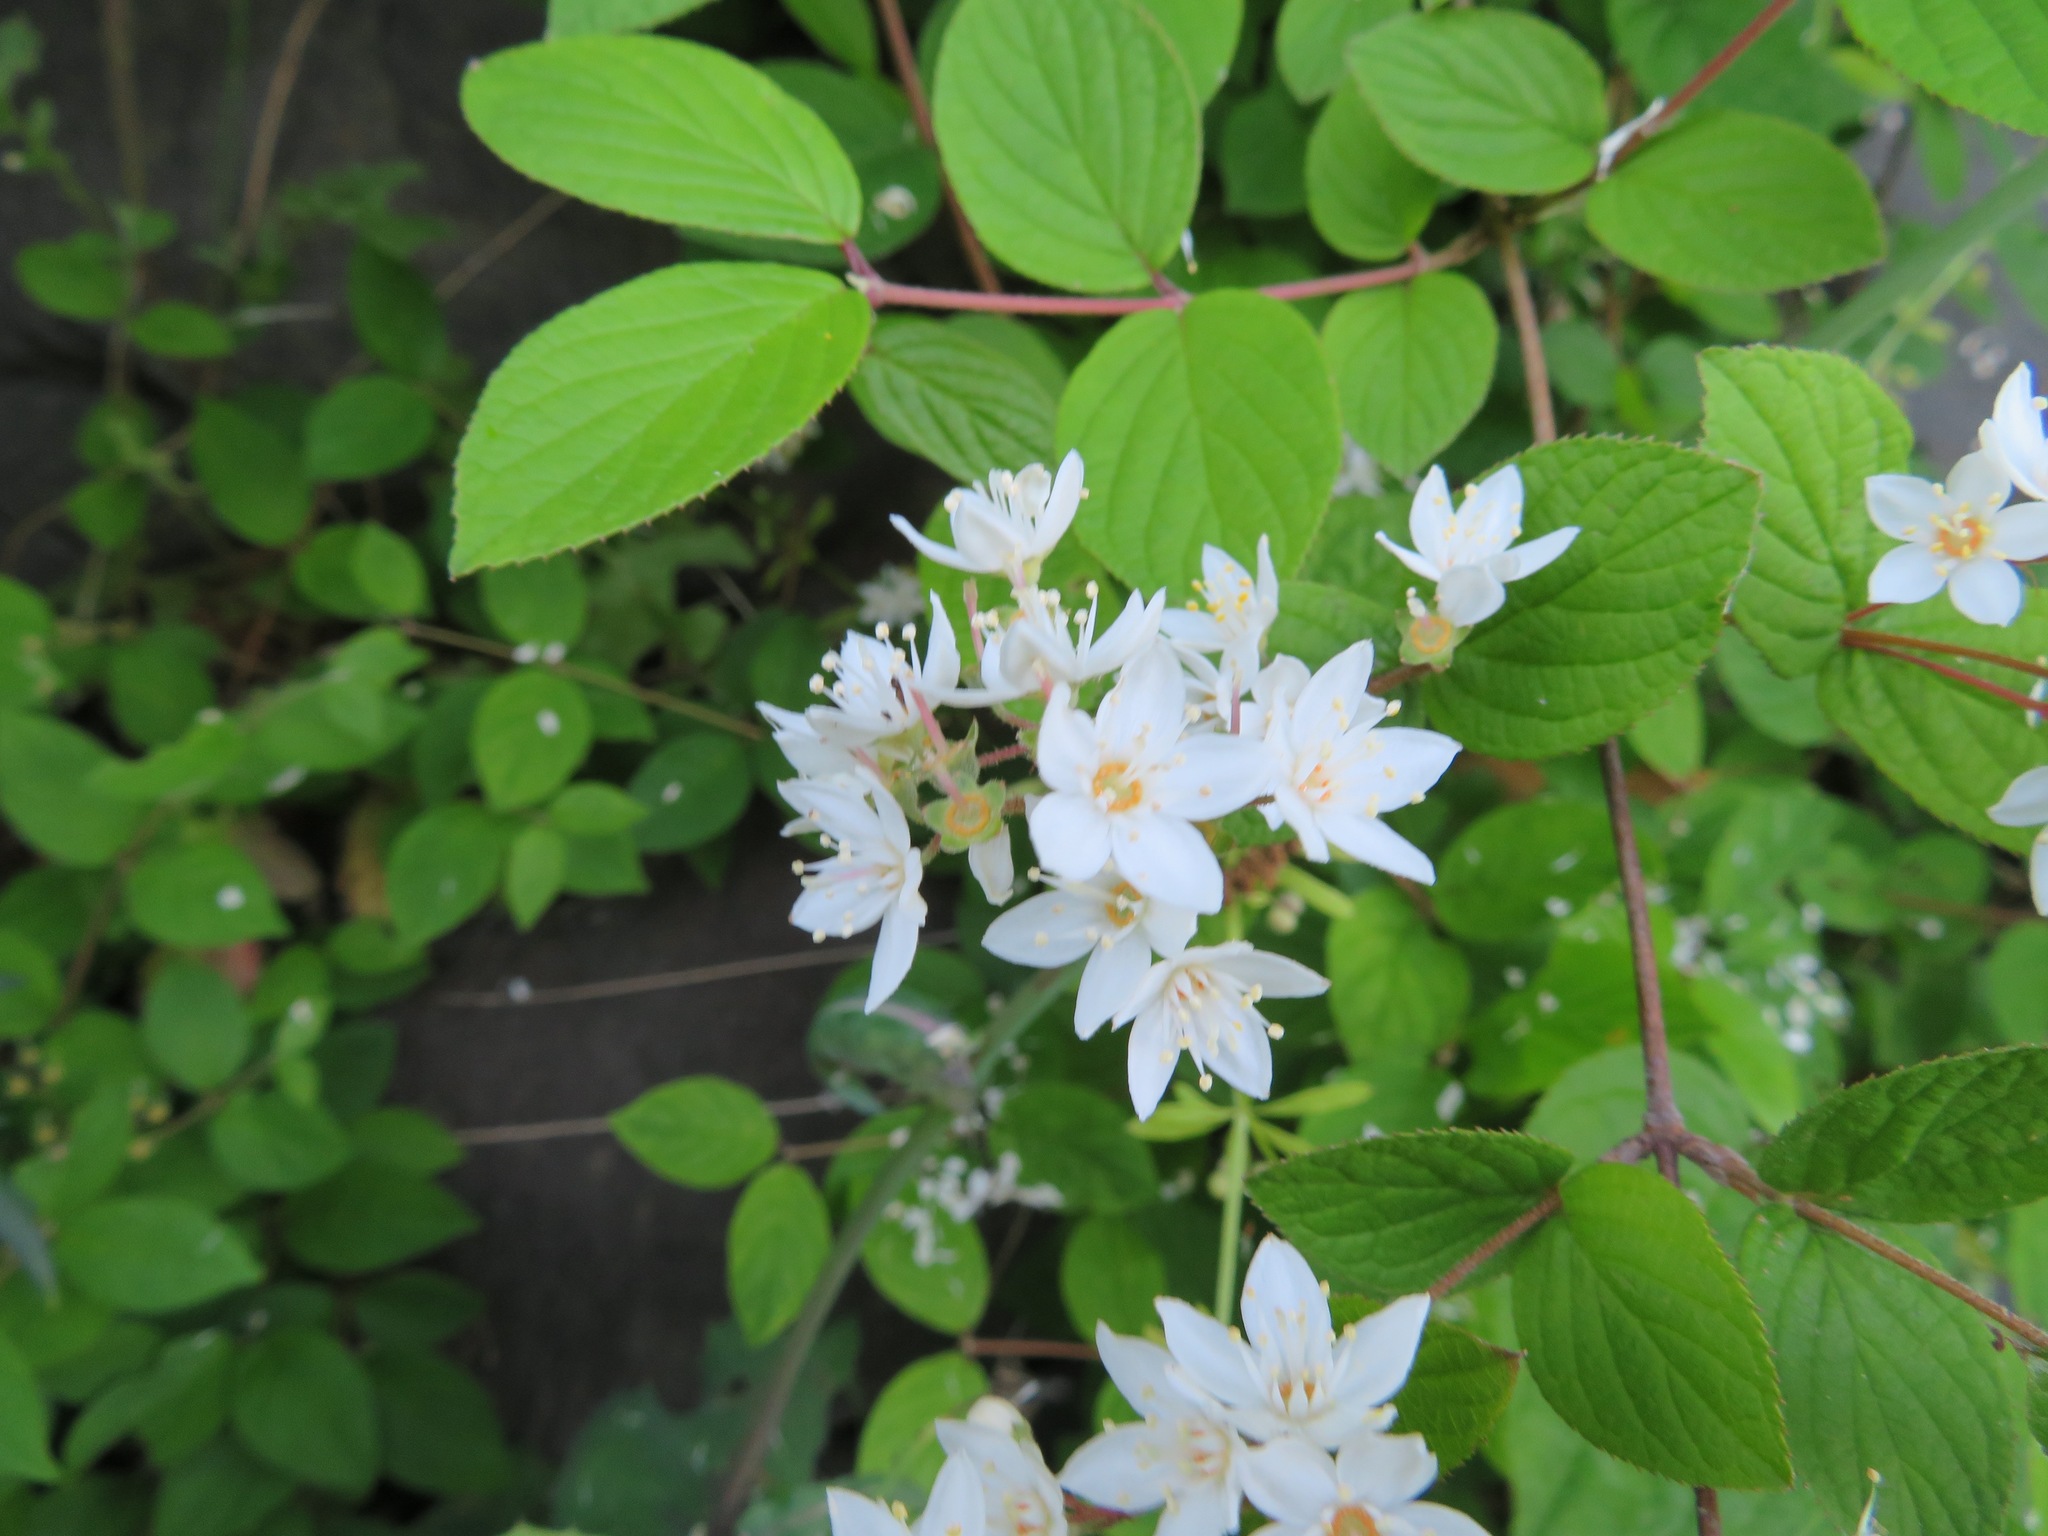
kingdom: Plantae
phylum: Tracheophyta
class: Magnoliopsida
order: Cornales
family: Hydrangeaceae
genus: Deutzia
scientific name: Deutzia scabra
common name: Deutzia
